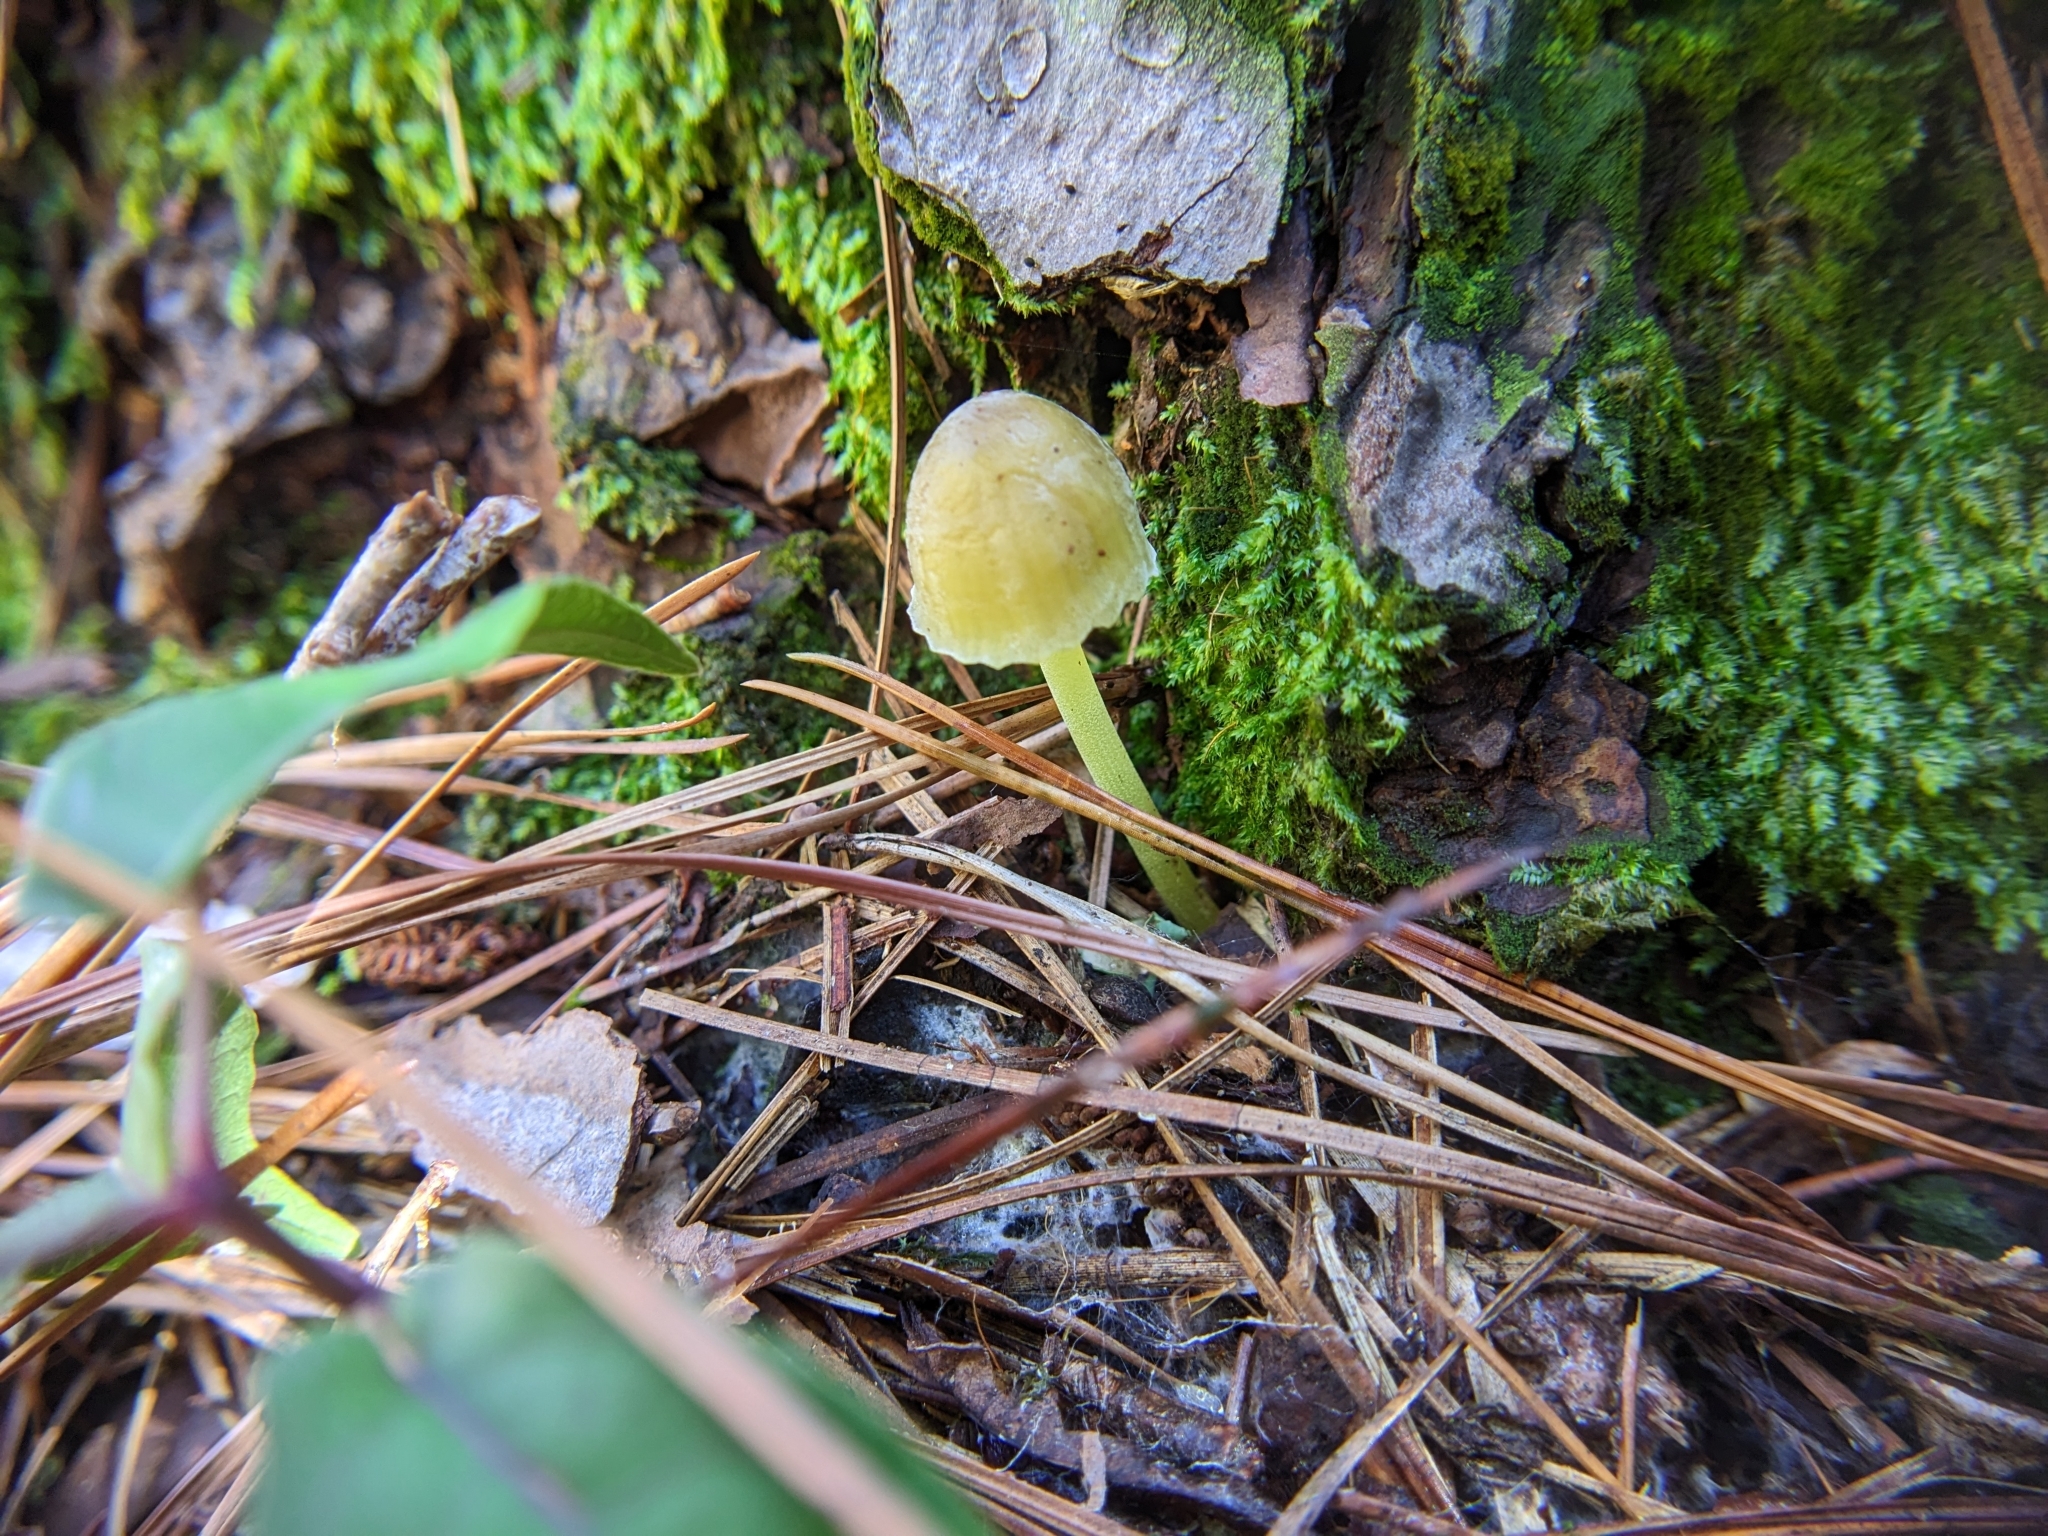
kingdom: Fungi
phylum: Basidiomycota
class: Agaricomycetes
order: Agaricales
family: Mycenaceae
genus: Mycena
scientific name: Mycena epipterygia
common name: Yellowleg bonnet
